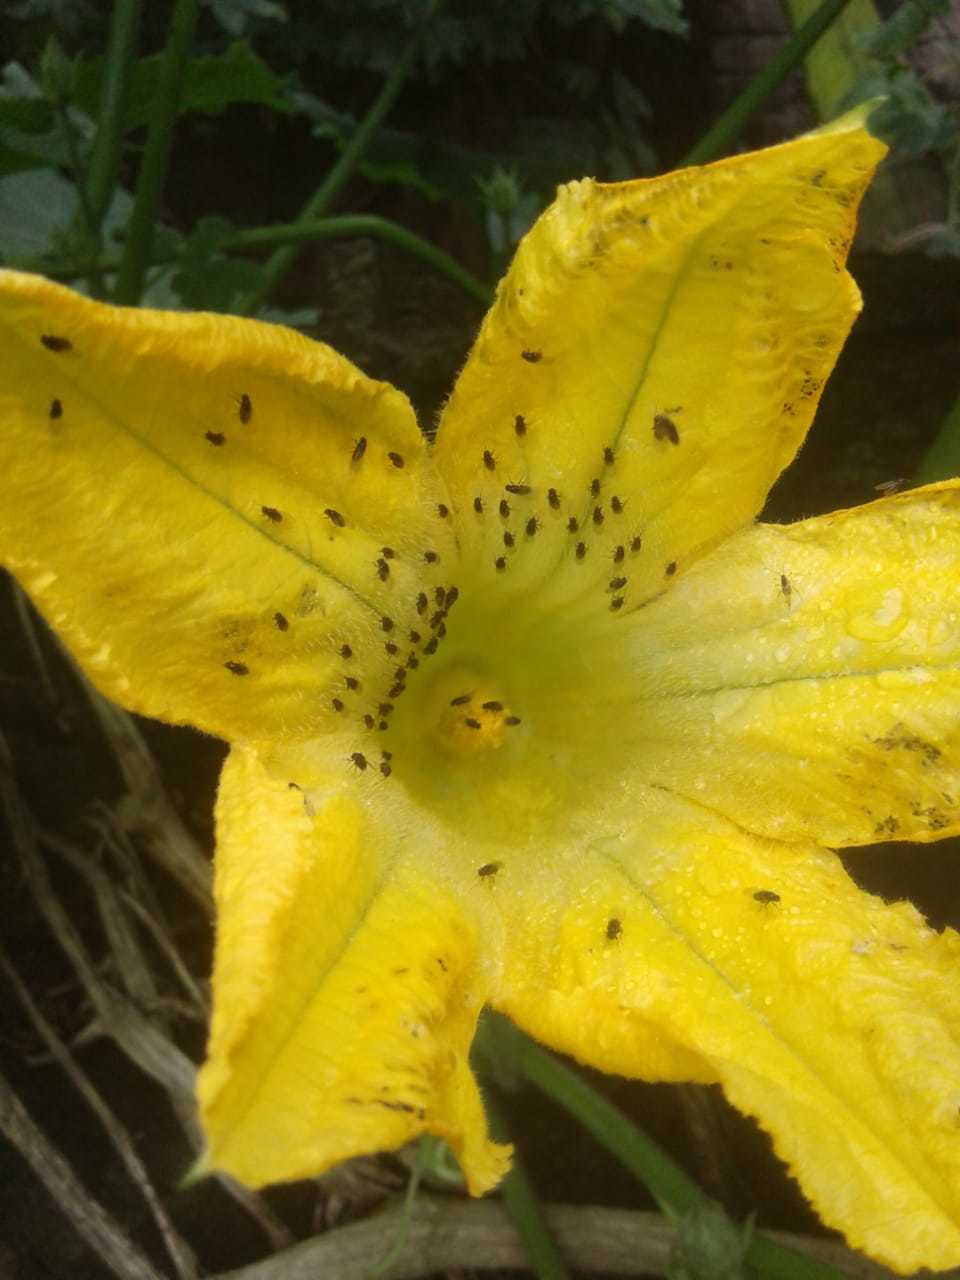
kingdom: Plantae
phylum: Tracheophyta
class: Magnoliopsida
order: Cucurbitales
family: Cucurbitaceae
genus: Cucurbita
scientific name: Cucurbita ficifolia
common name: Figleaf gourd
